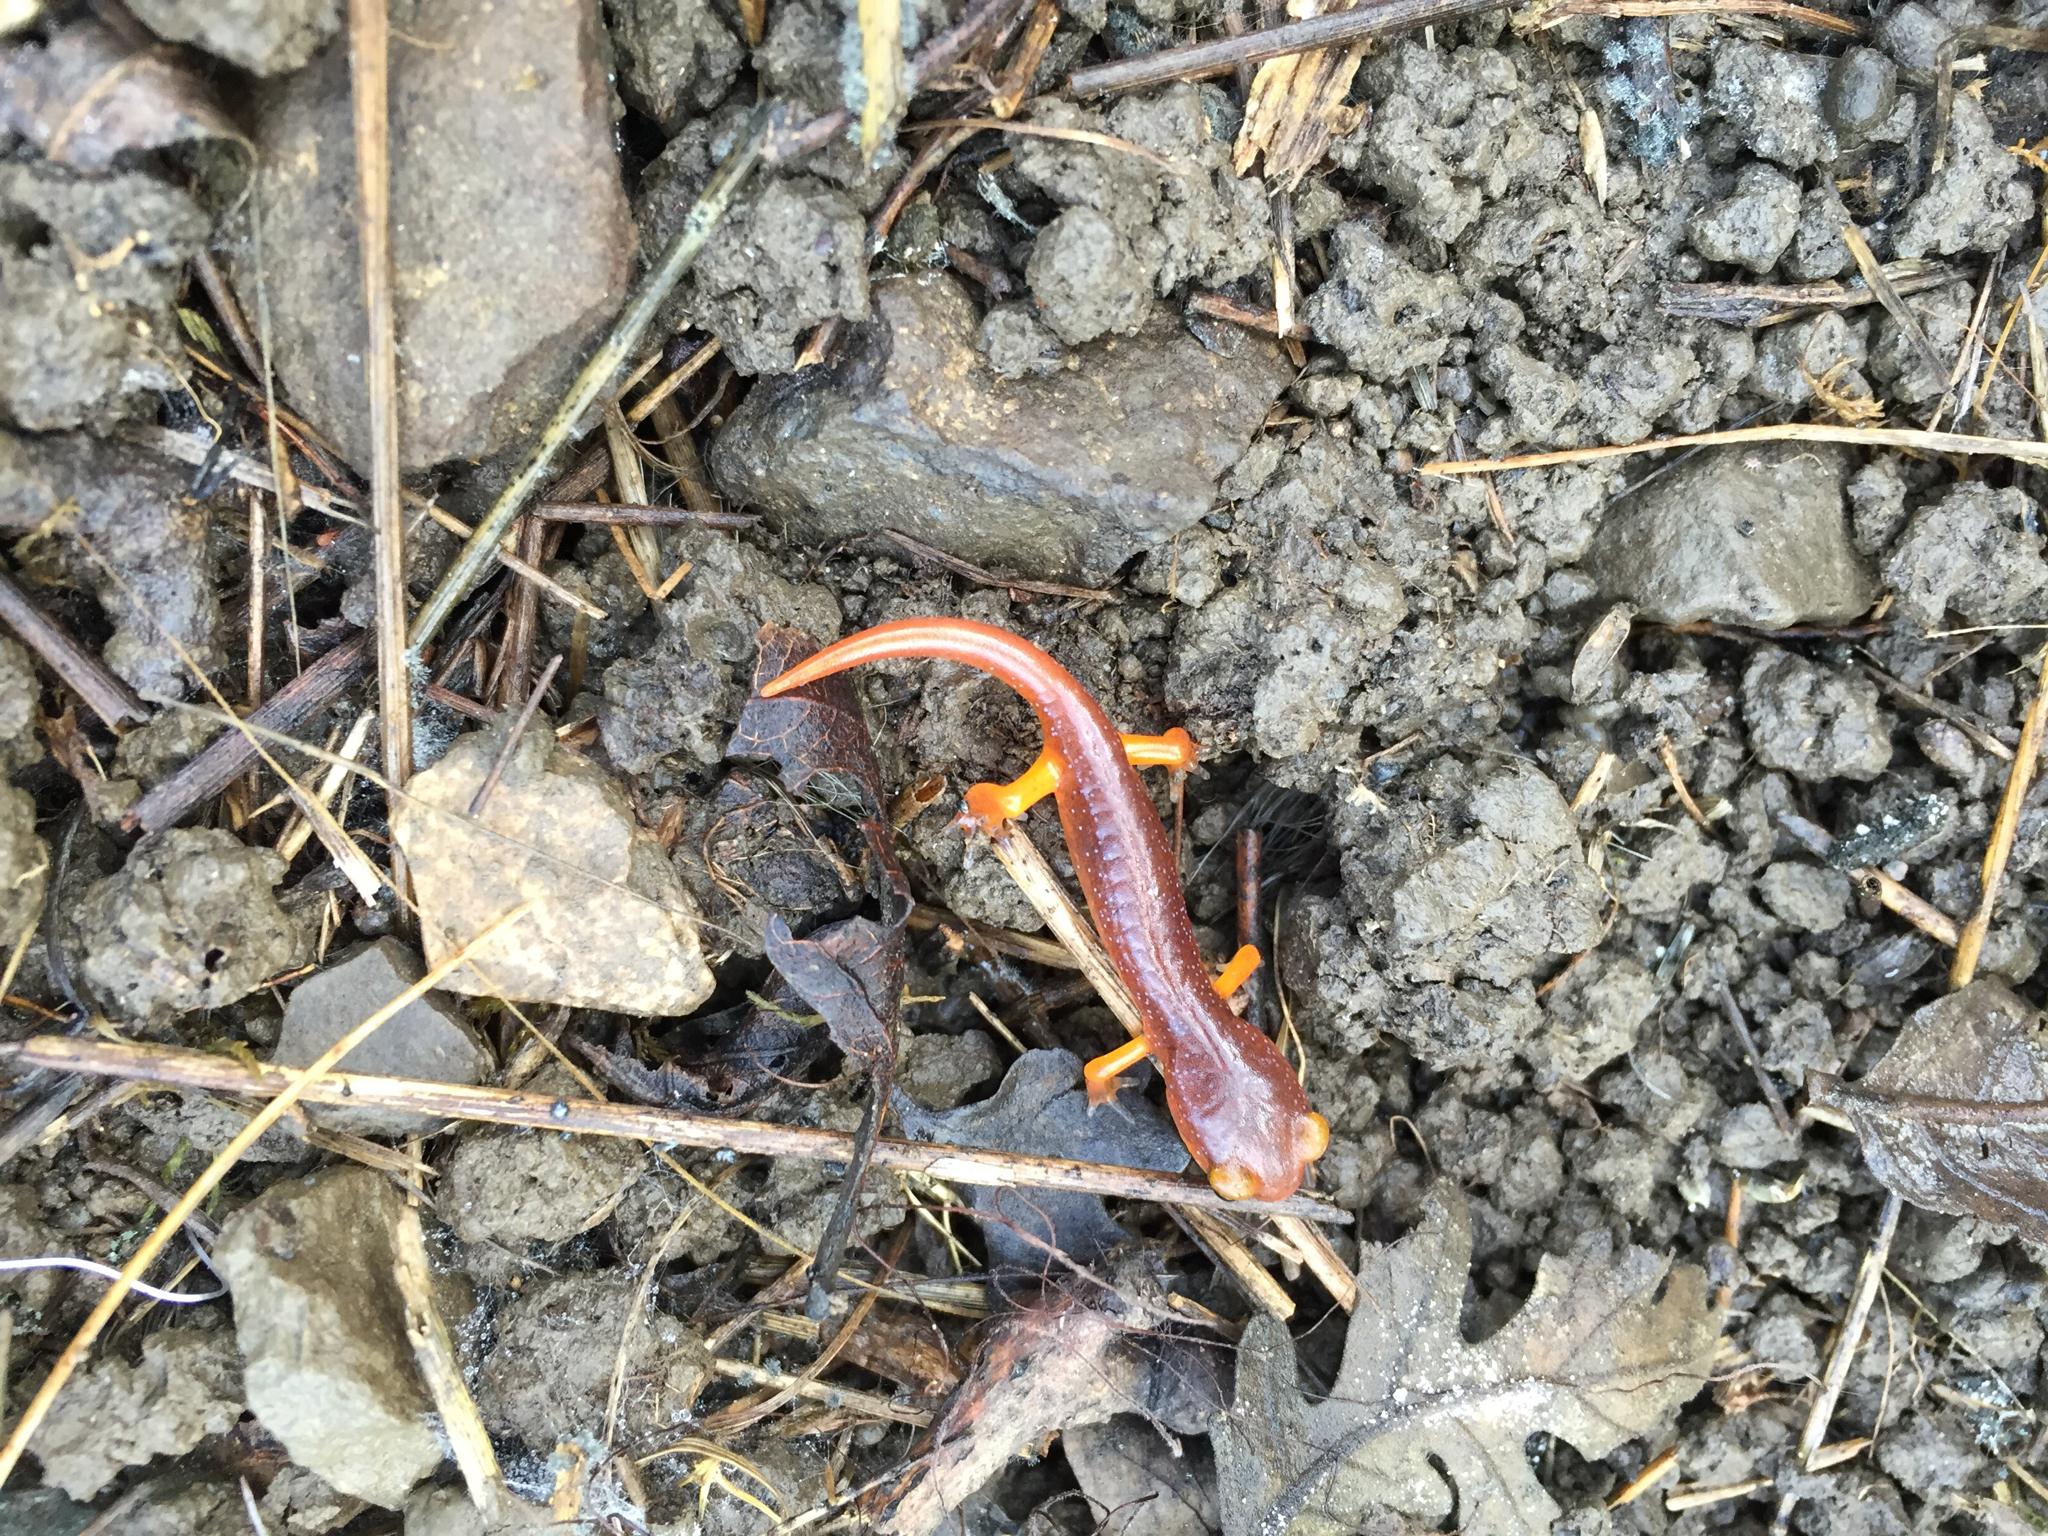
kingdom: Animalia
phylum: Chordata
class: Amphibia
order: Caudata
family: Plethodontidae
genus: Ensatina
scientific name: Ensatina eschscholtzii
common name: Ensatina
